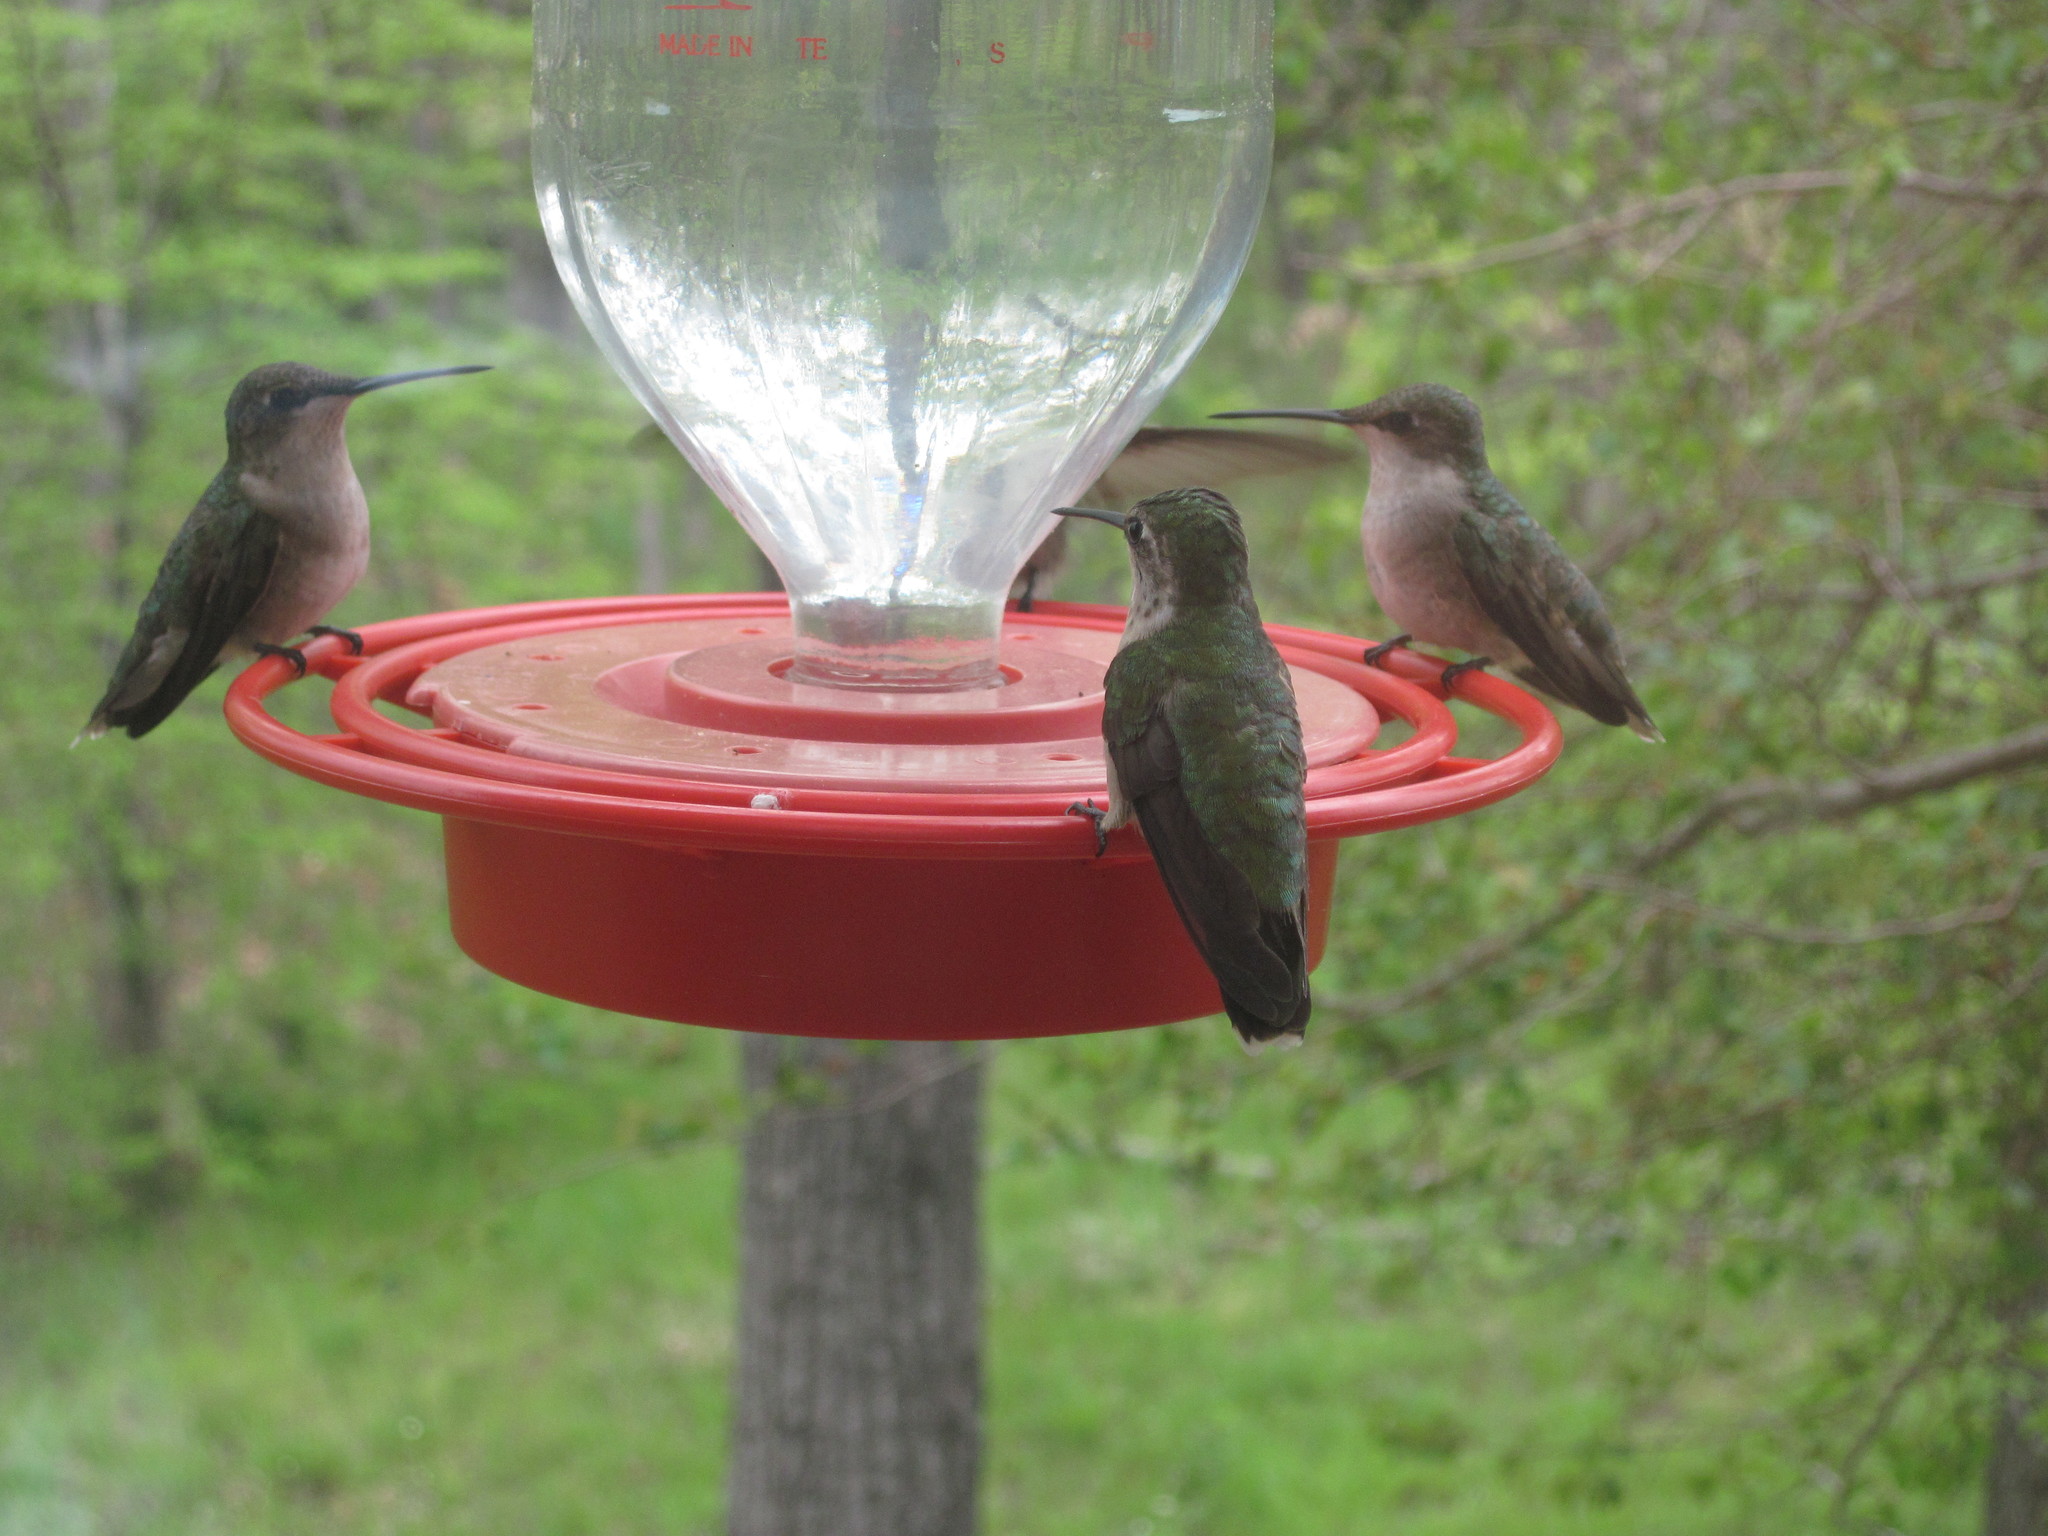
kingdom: Animalia
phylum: Chordata
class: Aves
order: Apodiformes
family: Trochilidae
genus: Archilochus
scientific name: Archilochus colubris
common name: Ruby-throated hummingbird
